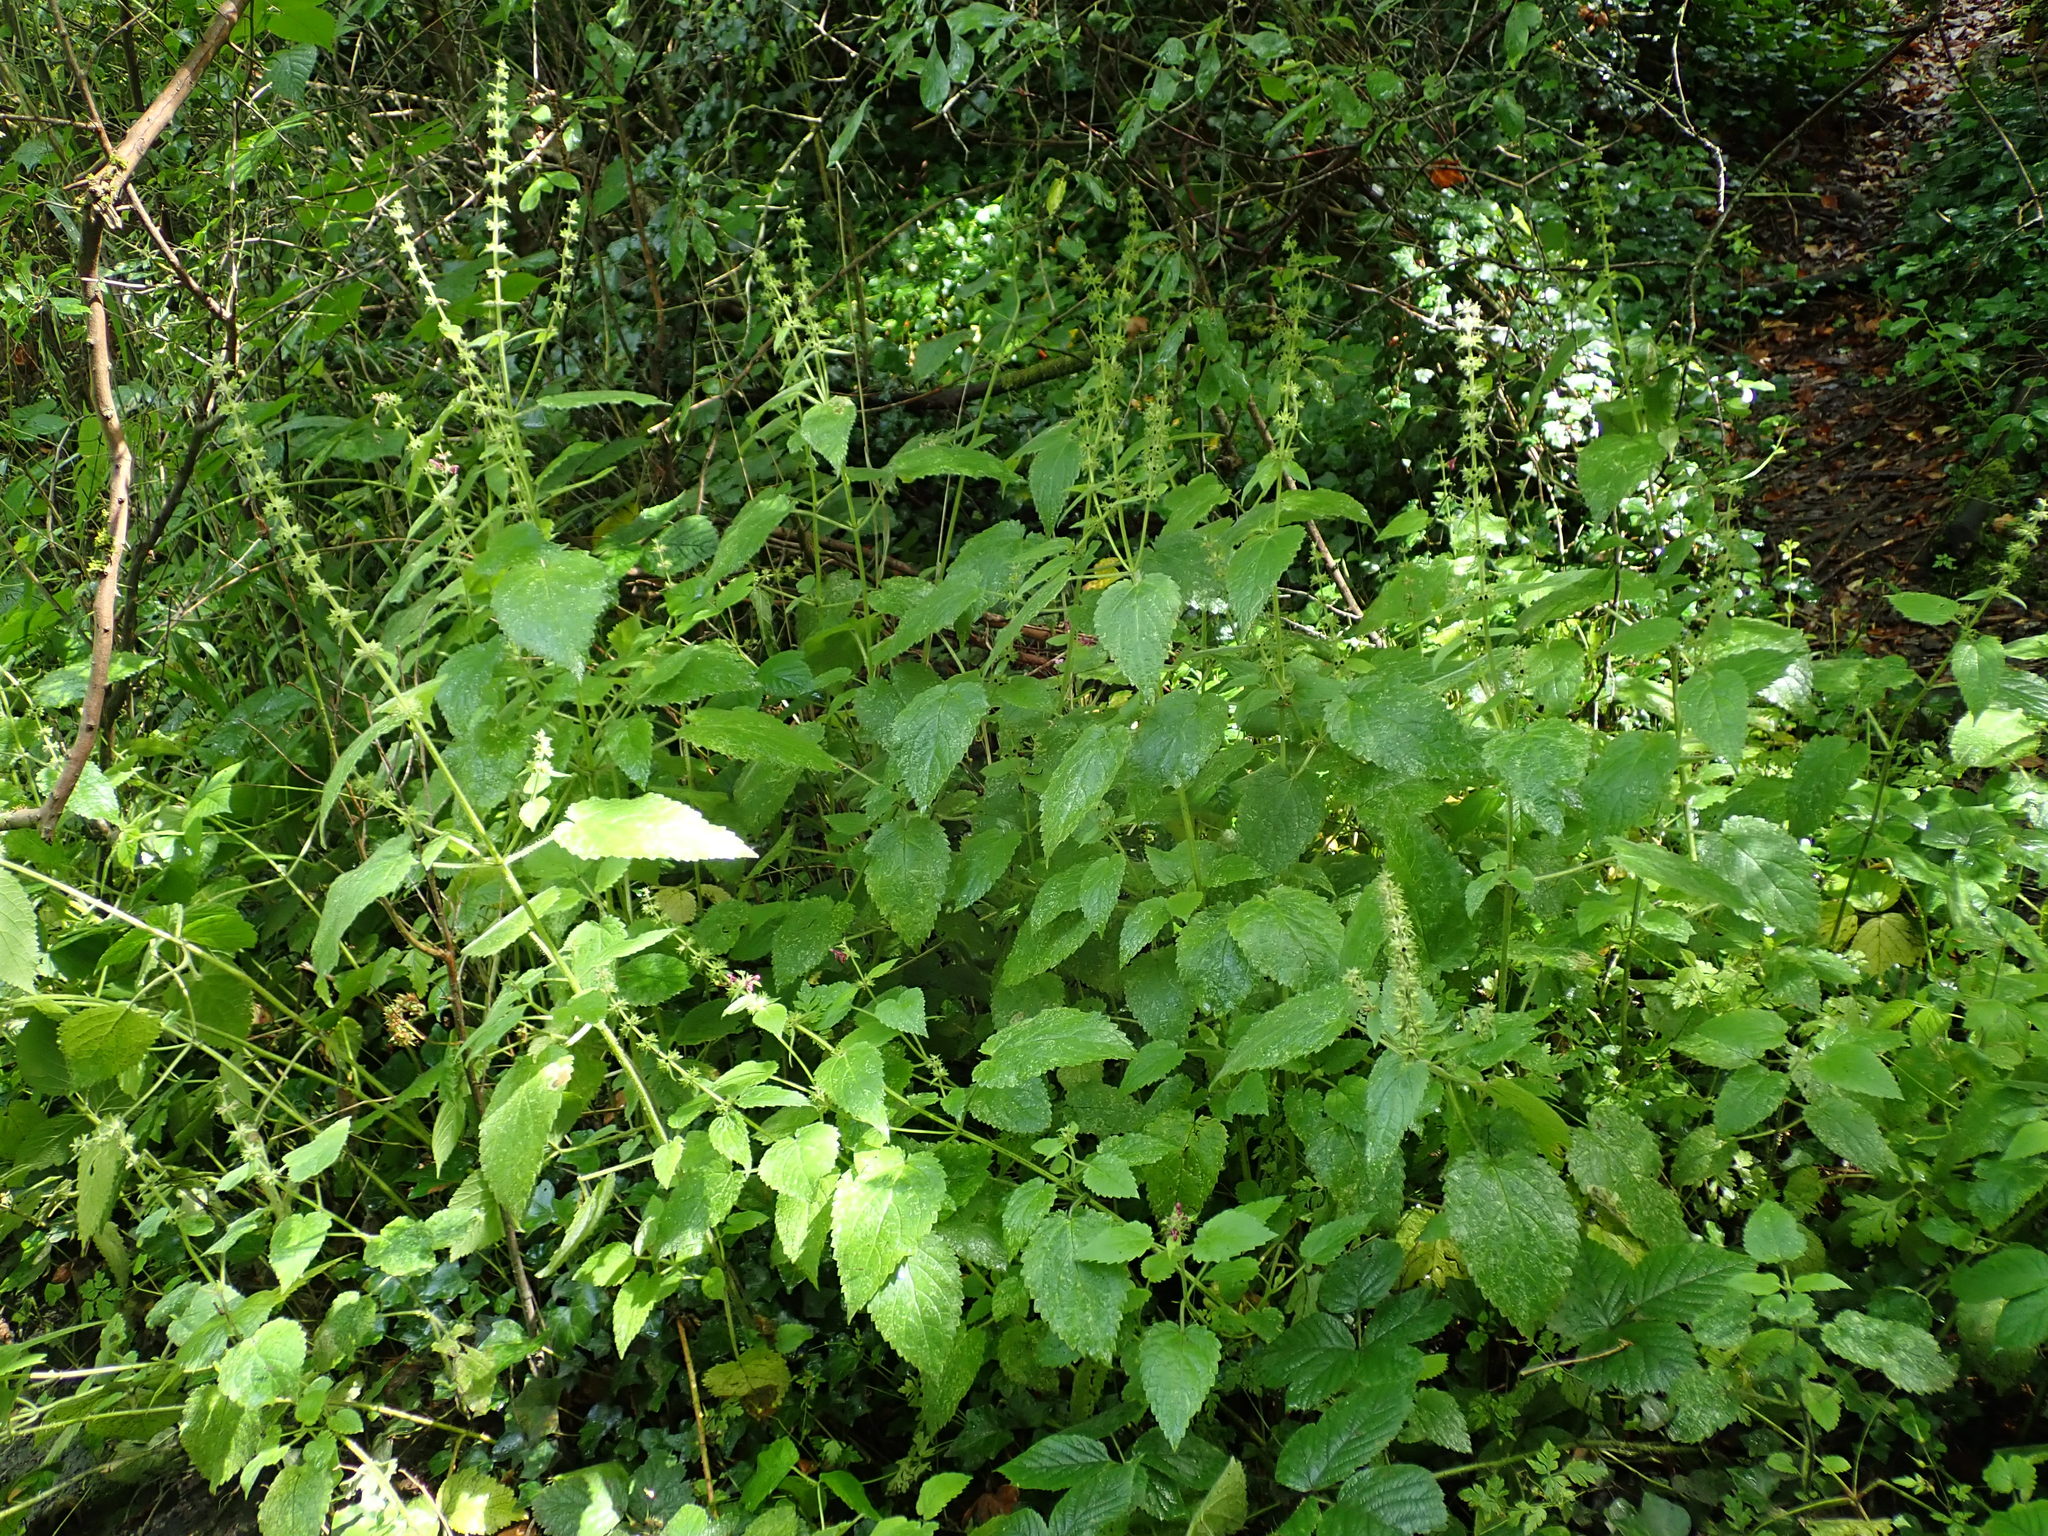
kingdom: Plantae
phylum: Tracheophyta
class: Magnoliopsida
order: Lamiales
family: Lamiaceae
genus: Stachys
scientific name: Stachys sylvatica
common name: Hedge woundwort
